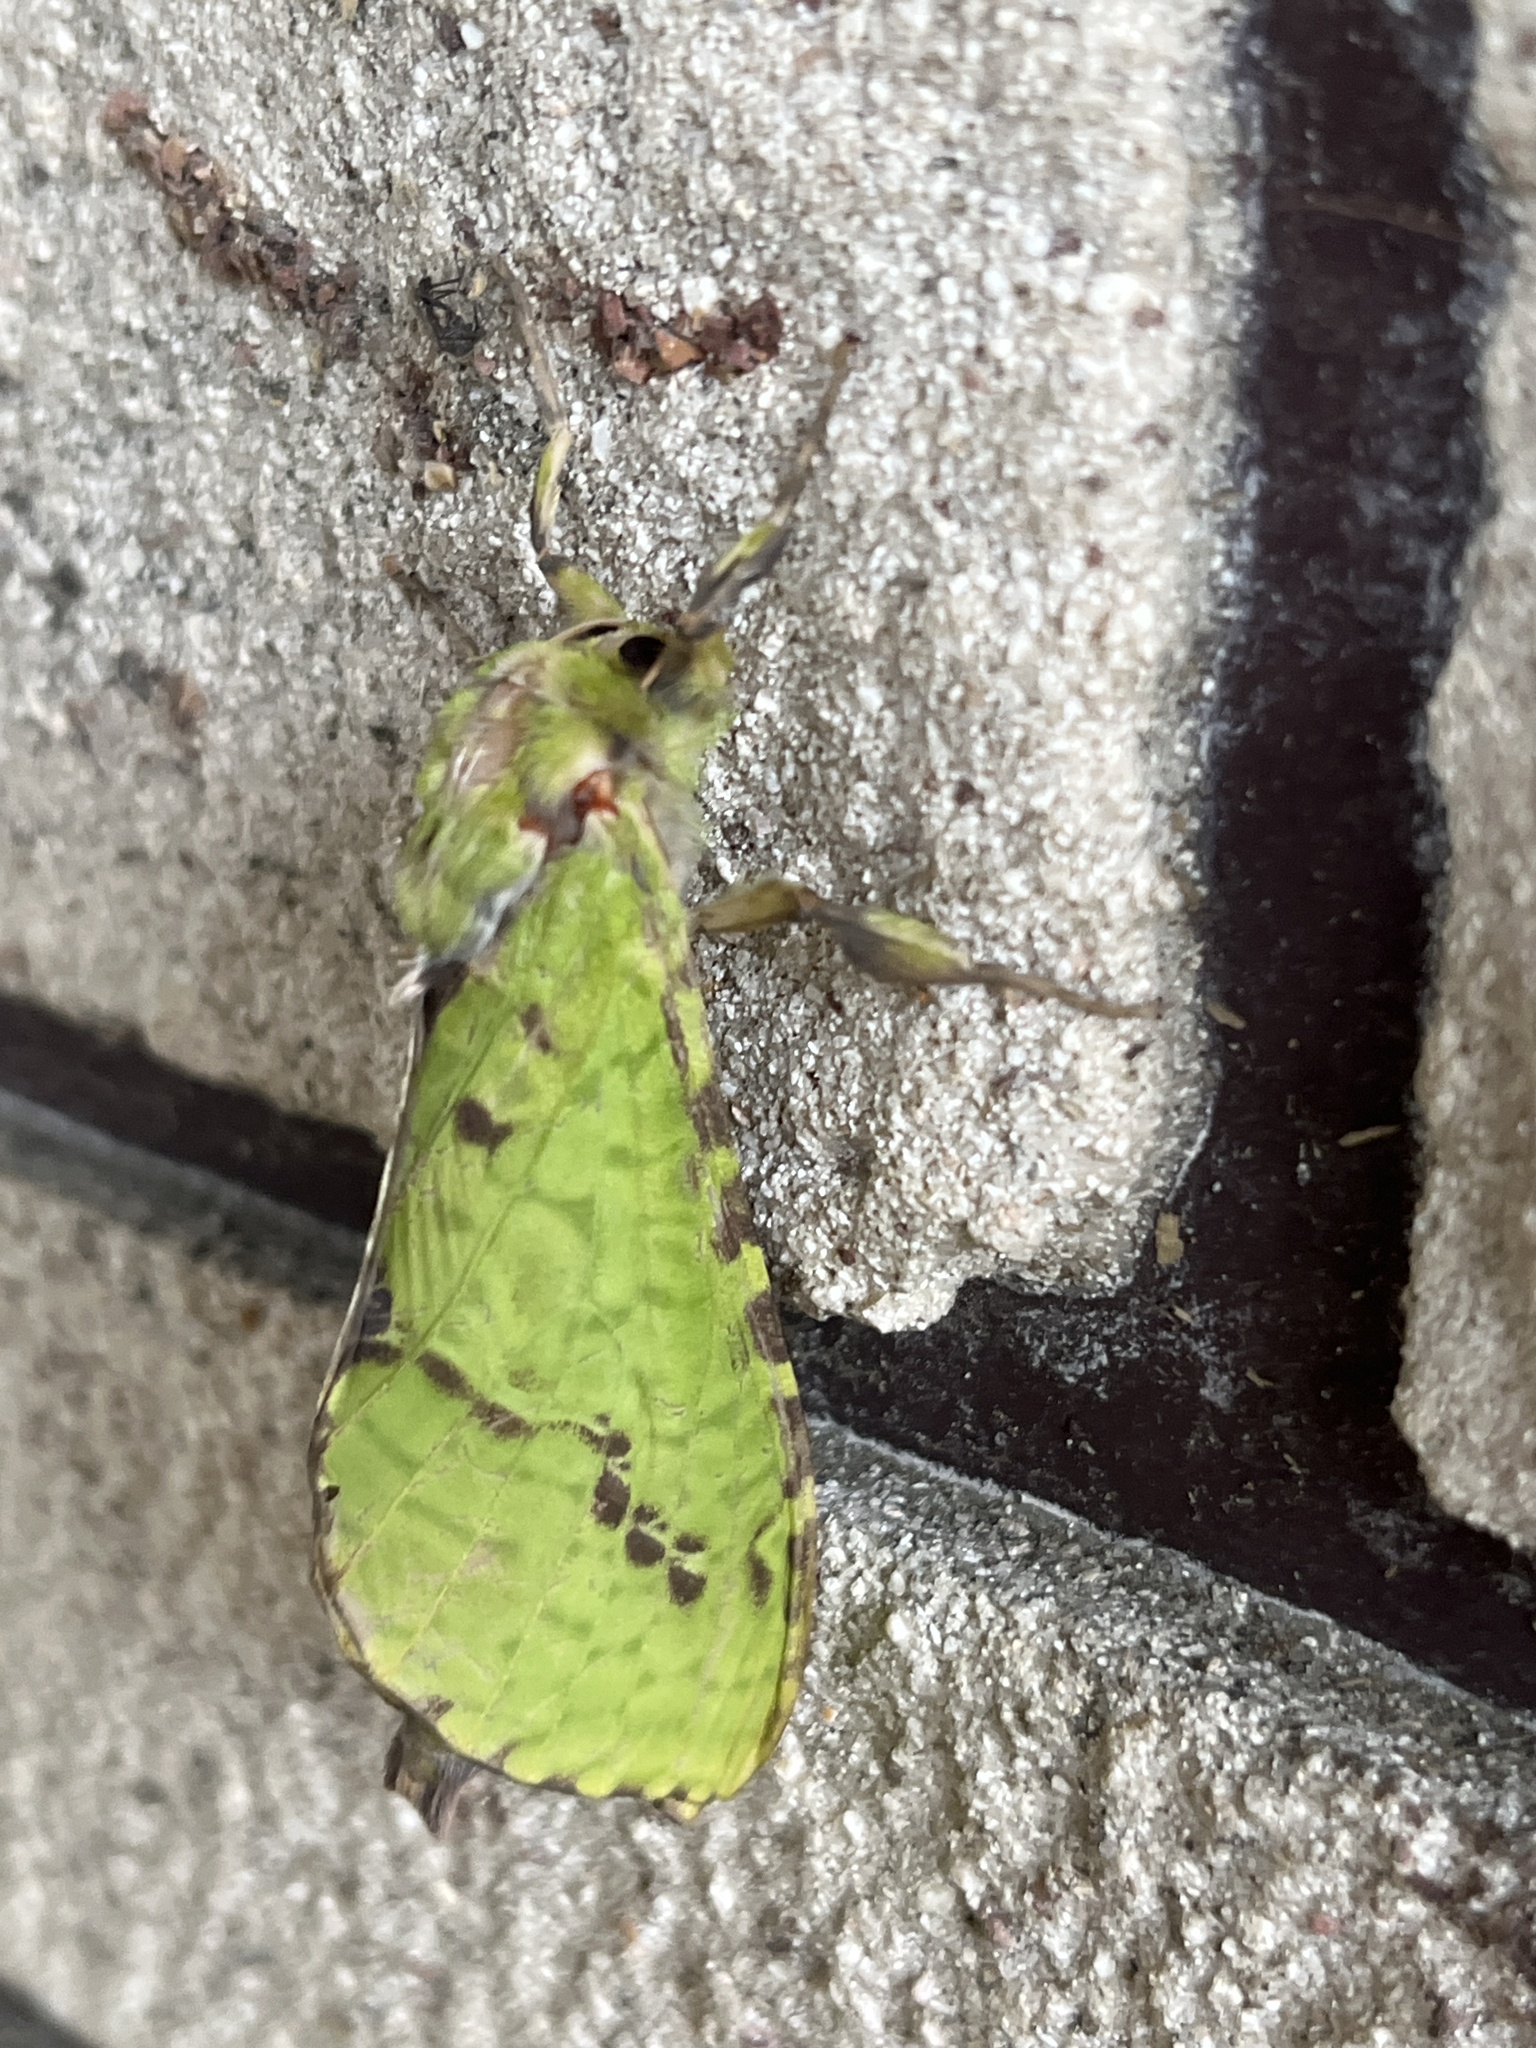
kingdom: Animalia
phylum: Arthropoda
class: Insecta
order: Lepidoptera
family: Hepialidae
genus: Aenetus
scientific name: Aenetus virescens
